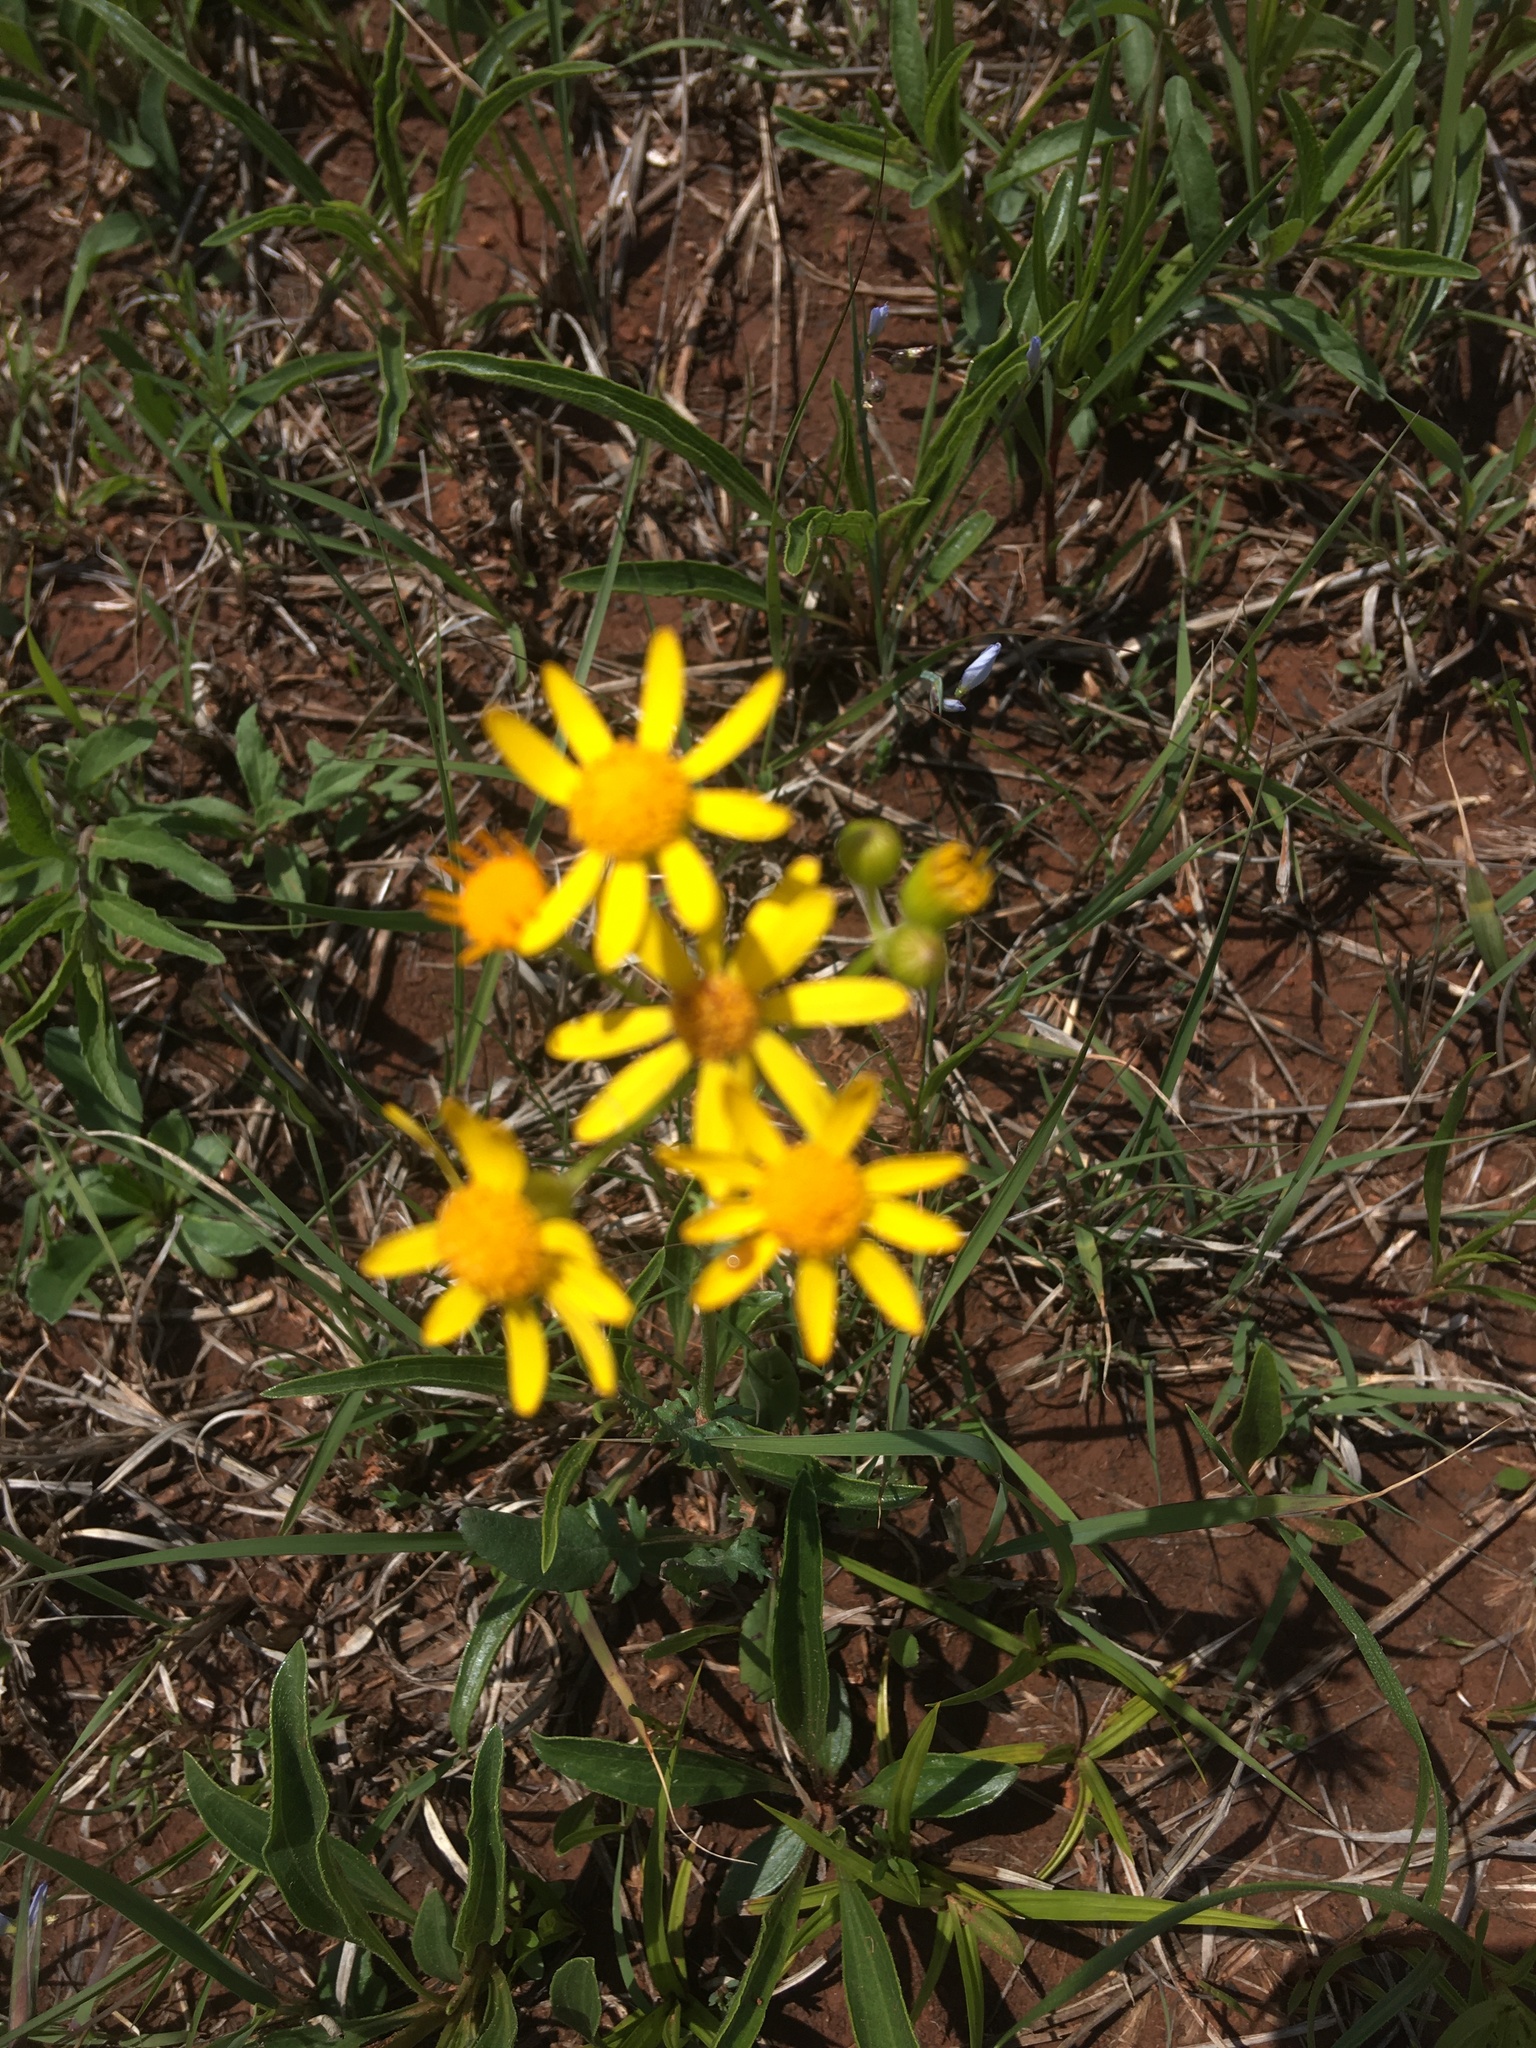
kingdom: Plantae
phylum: Tracheophyta
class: Magnoliopsida
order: Asterales
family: Asteraceae
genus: Packera
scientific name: Packera plattensis
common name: Prairie groundsel
